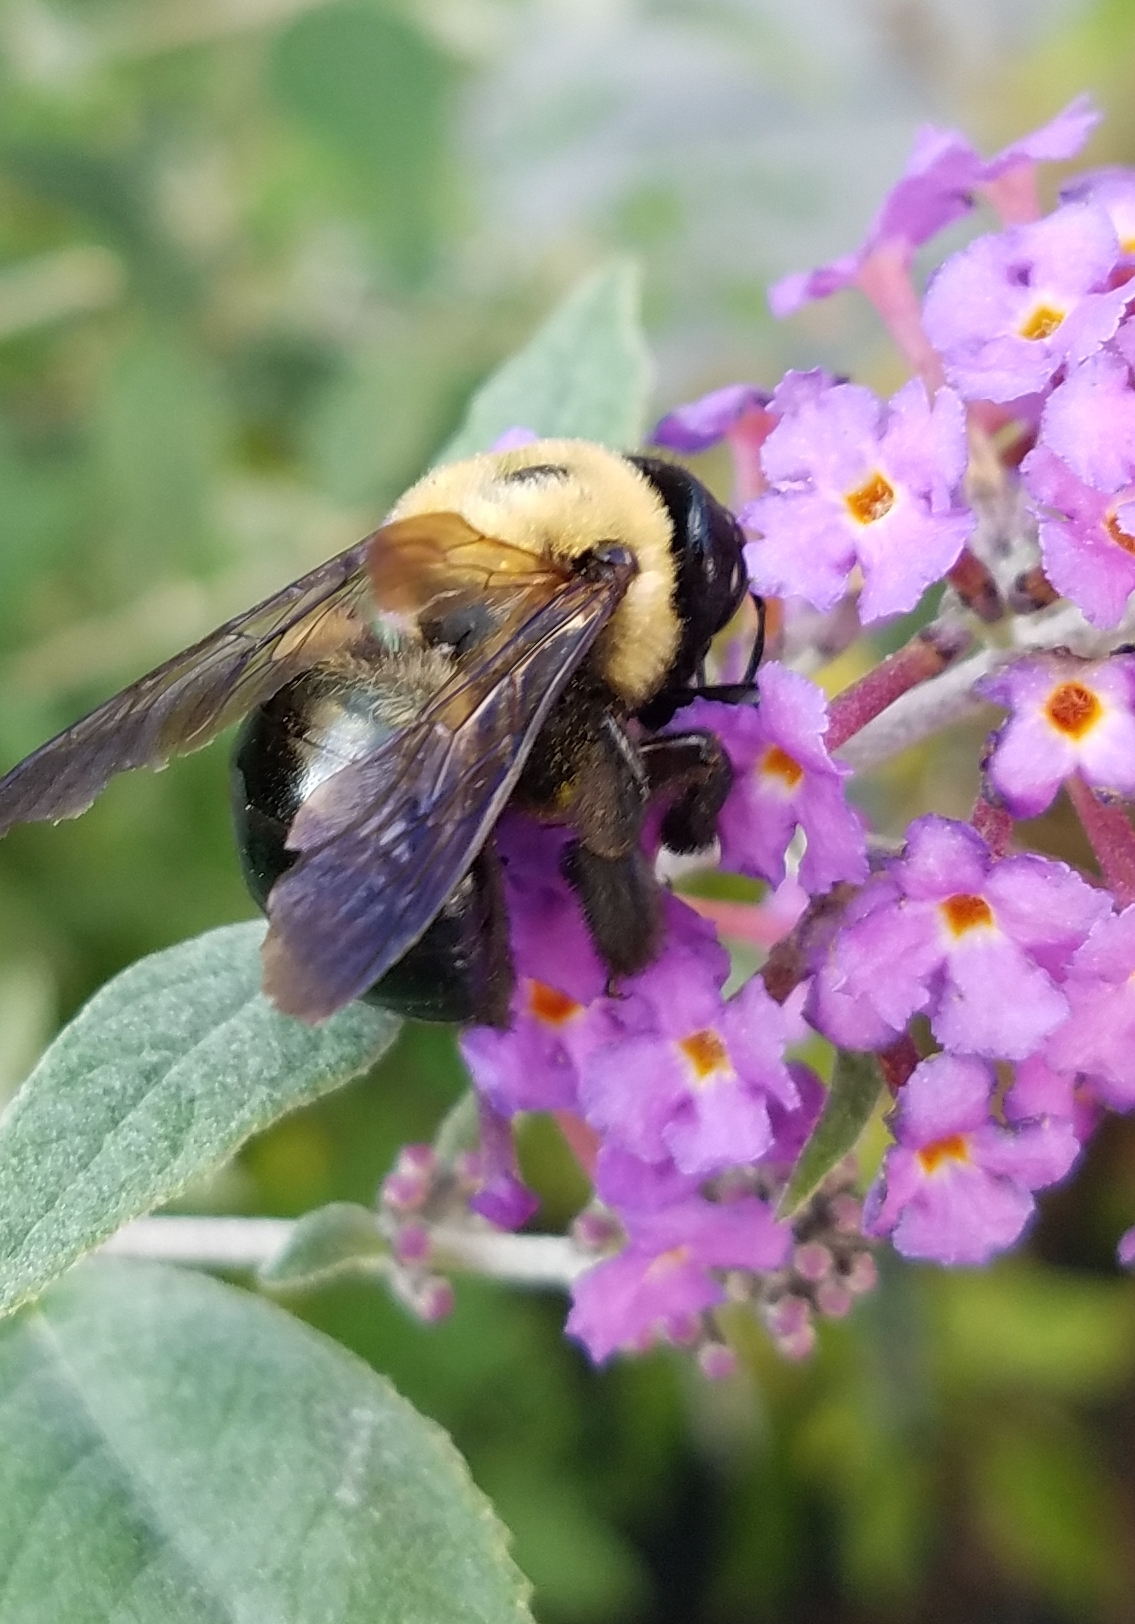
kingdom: Animalia
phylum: Arthropoda
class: Insecta
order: Hymenoptera
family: Apidae
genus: Xylocopa
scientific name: Xylocopa virginica
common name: Carpenter bee
